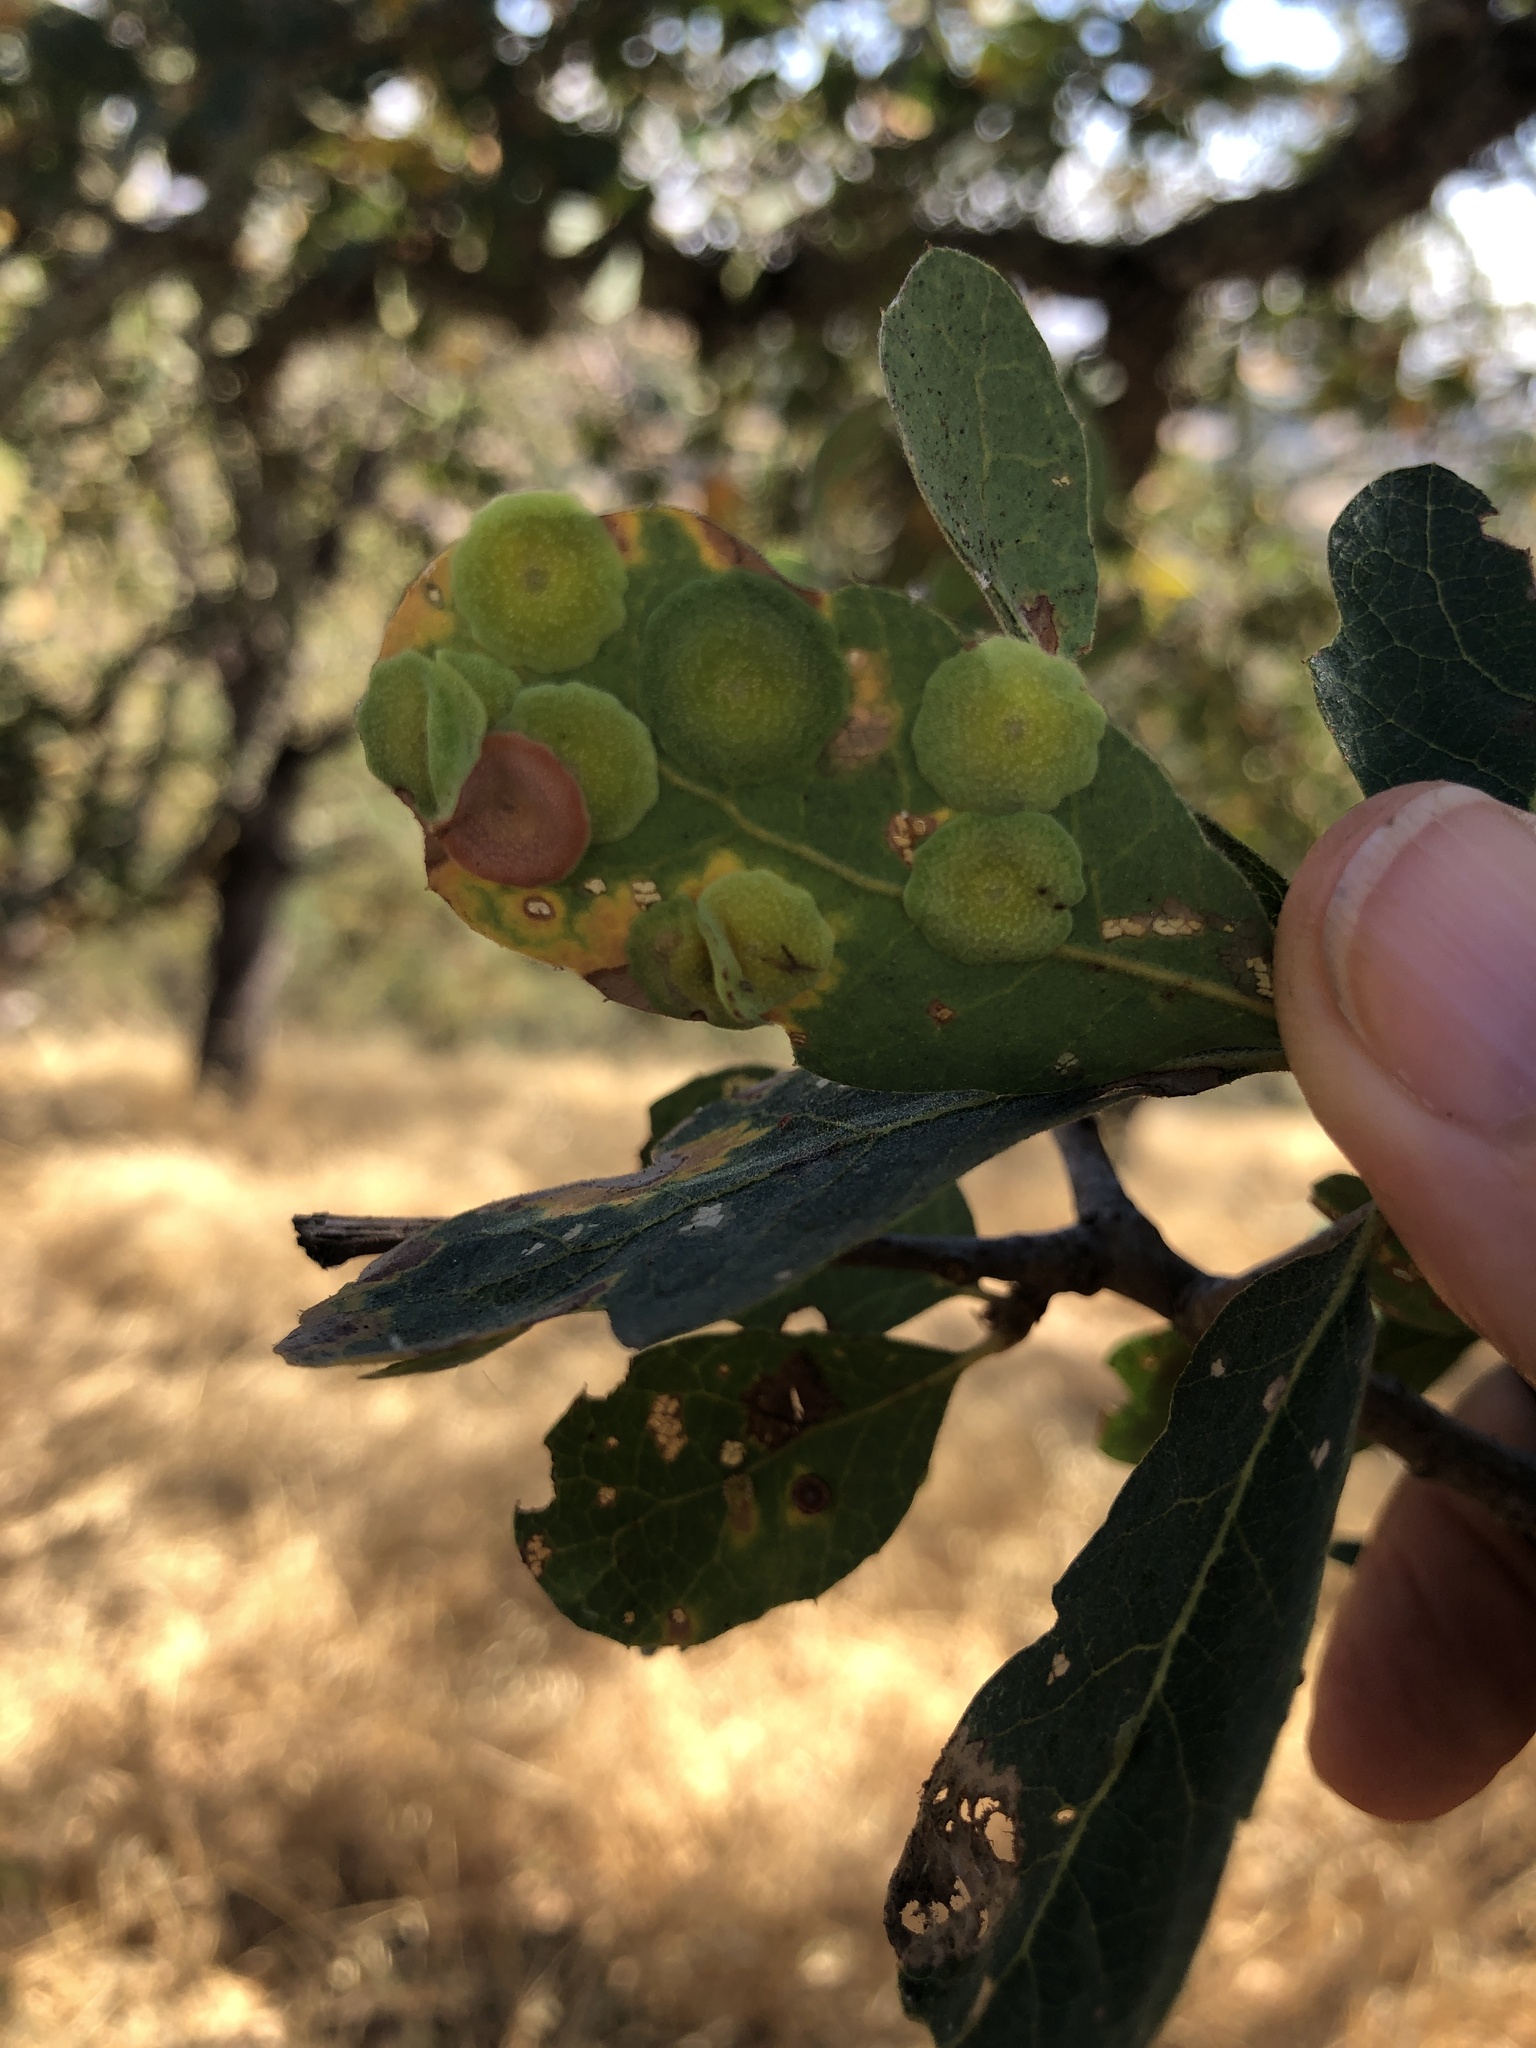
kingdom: Animalia
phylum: Arthropoda
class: Insecta
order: Hymenoptera
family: Cynipidae
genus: Andricus
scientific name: Andricus
